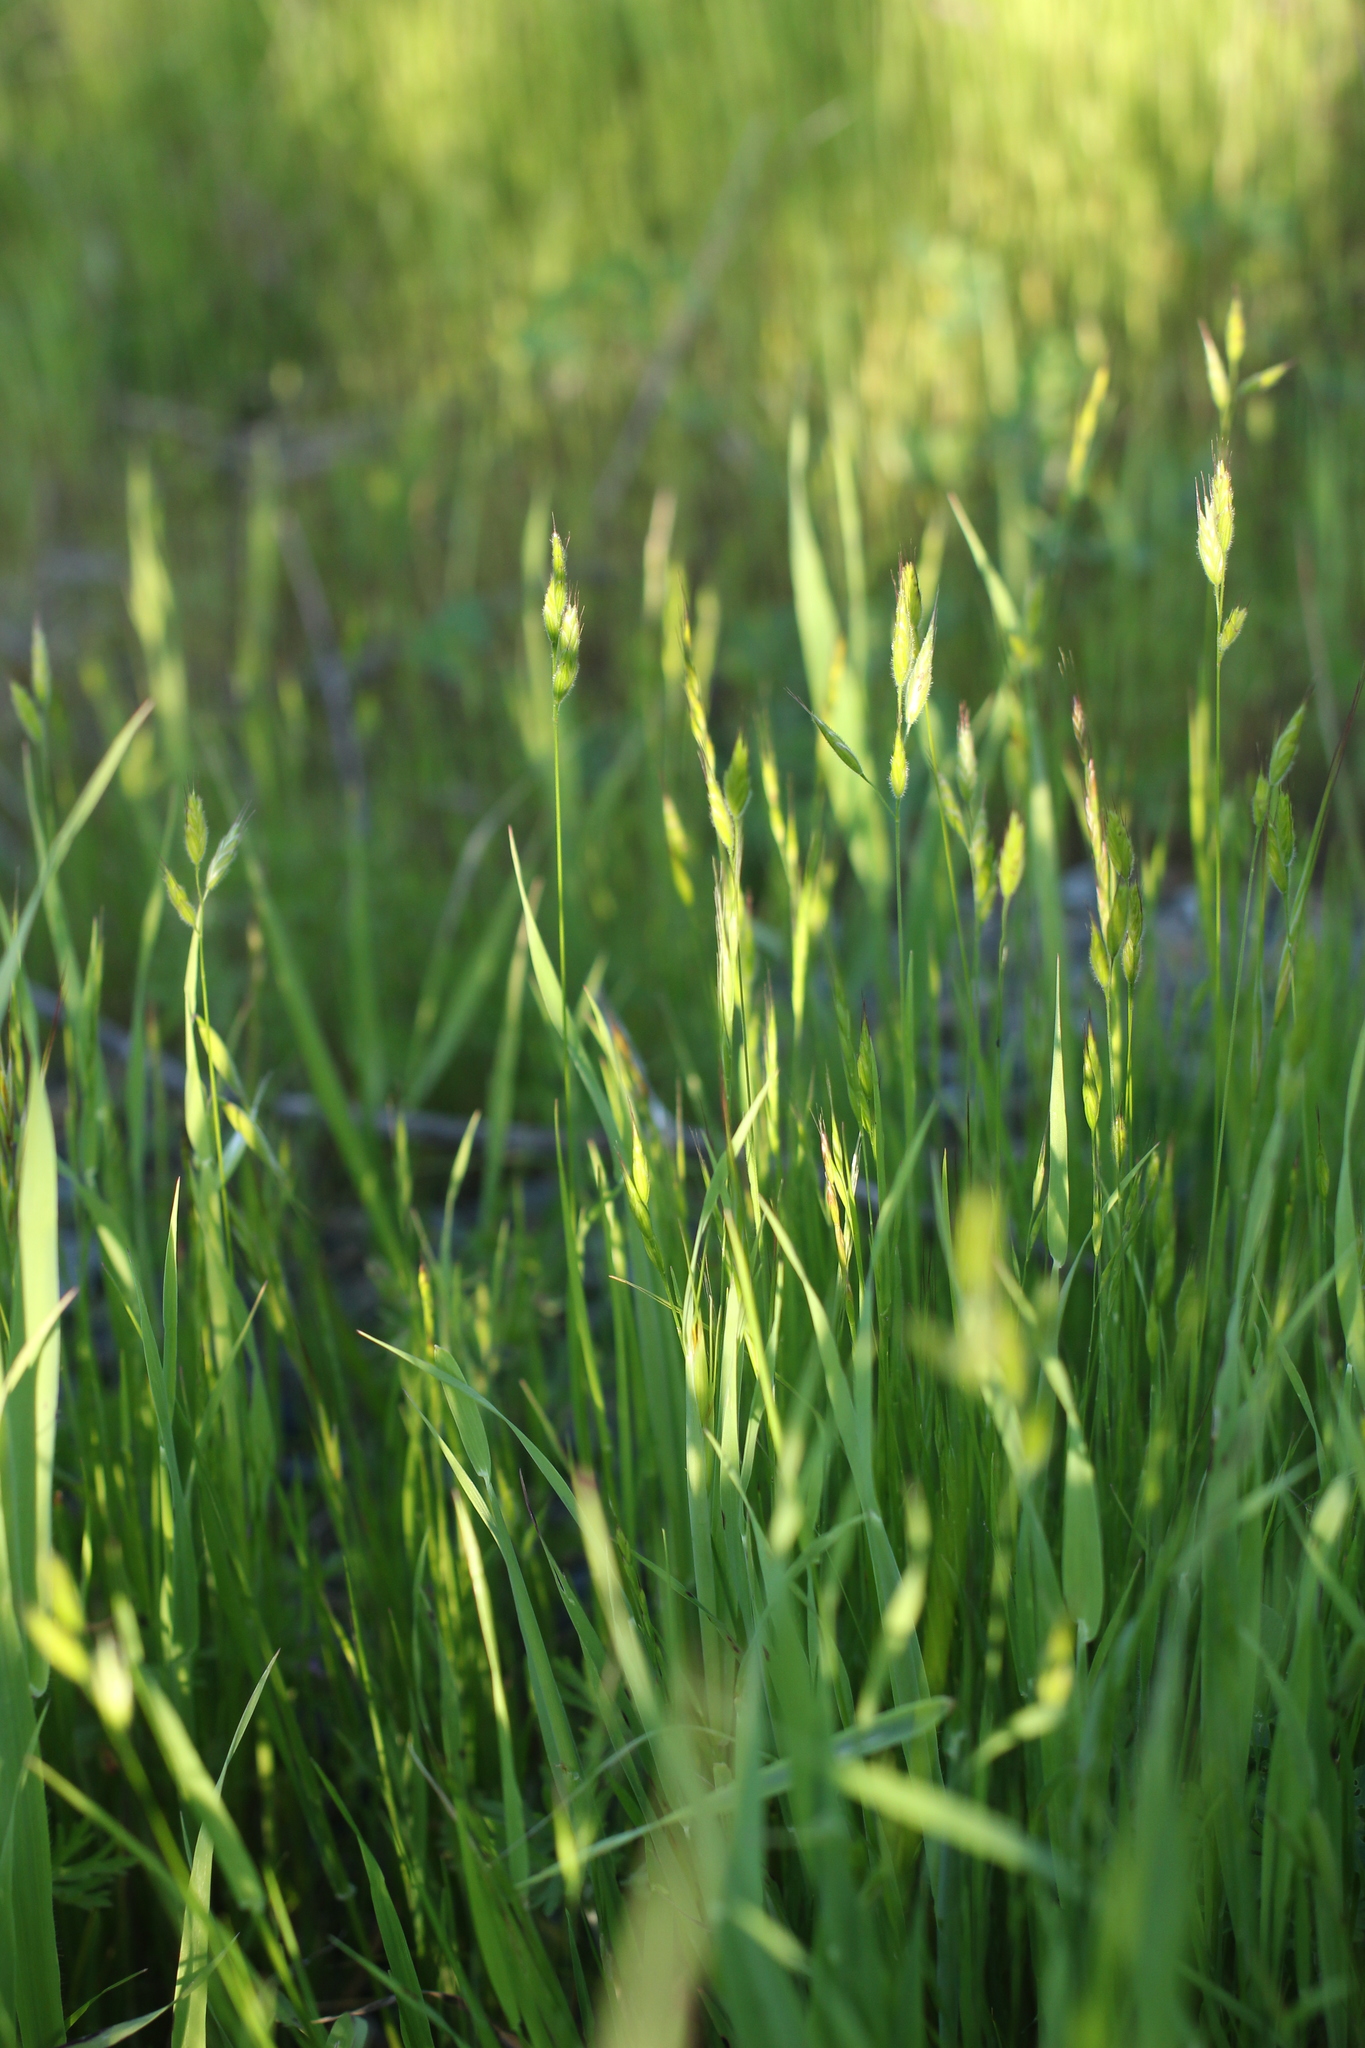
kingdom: Plantae
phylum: Tracheophyta
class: Liliopsida
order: Poales
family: Poaceae
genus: Bromus
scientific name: Bromus hordeaceus
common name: Soft brome
